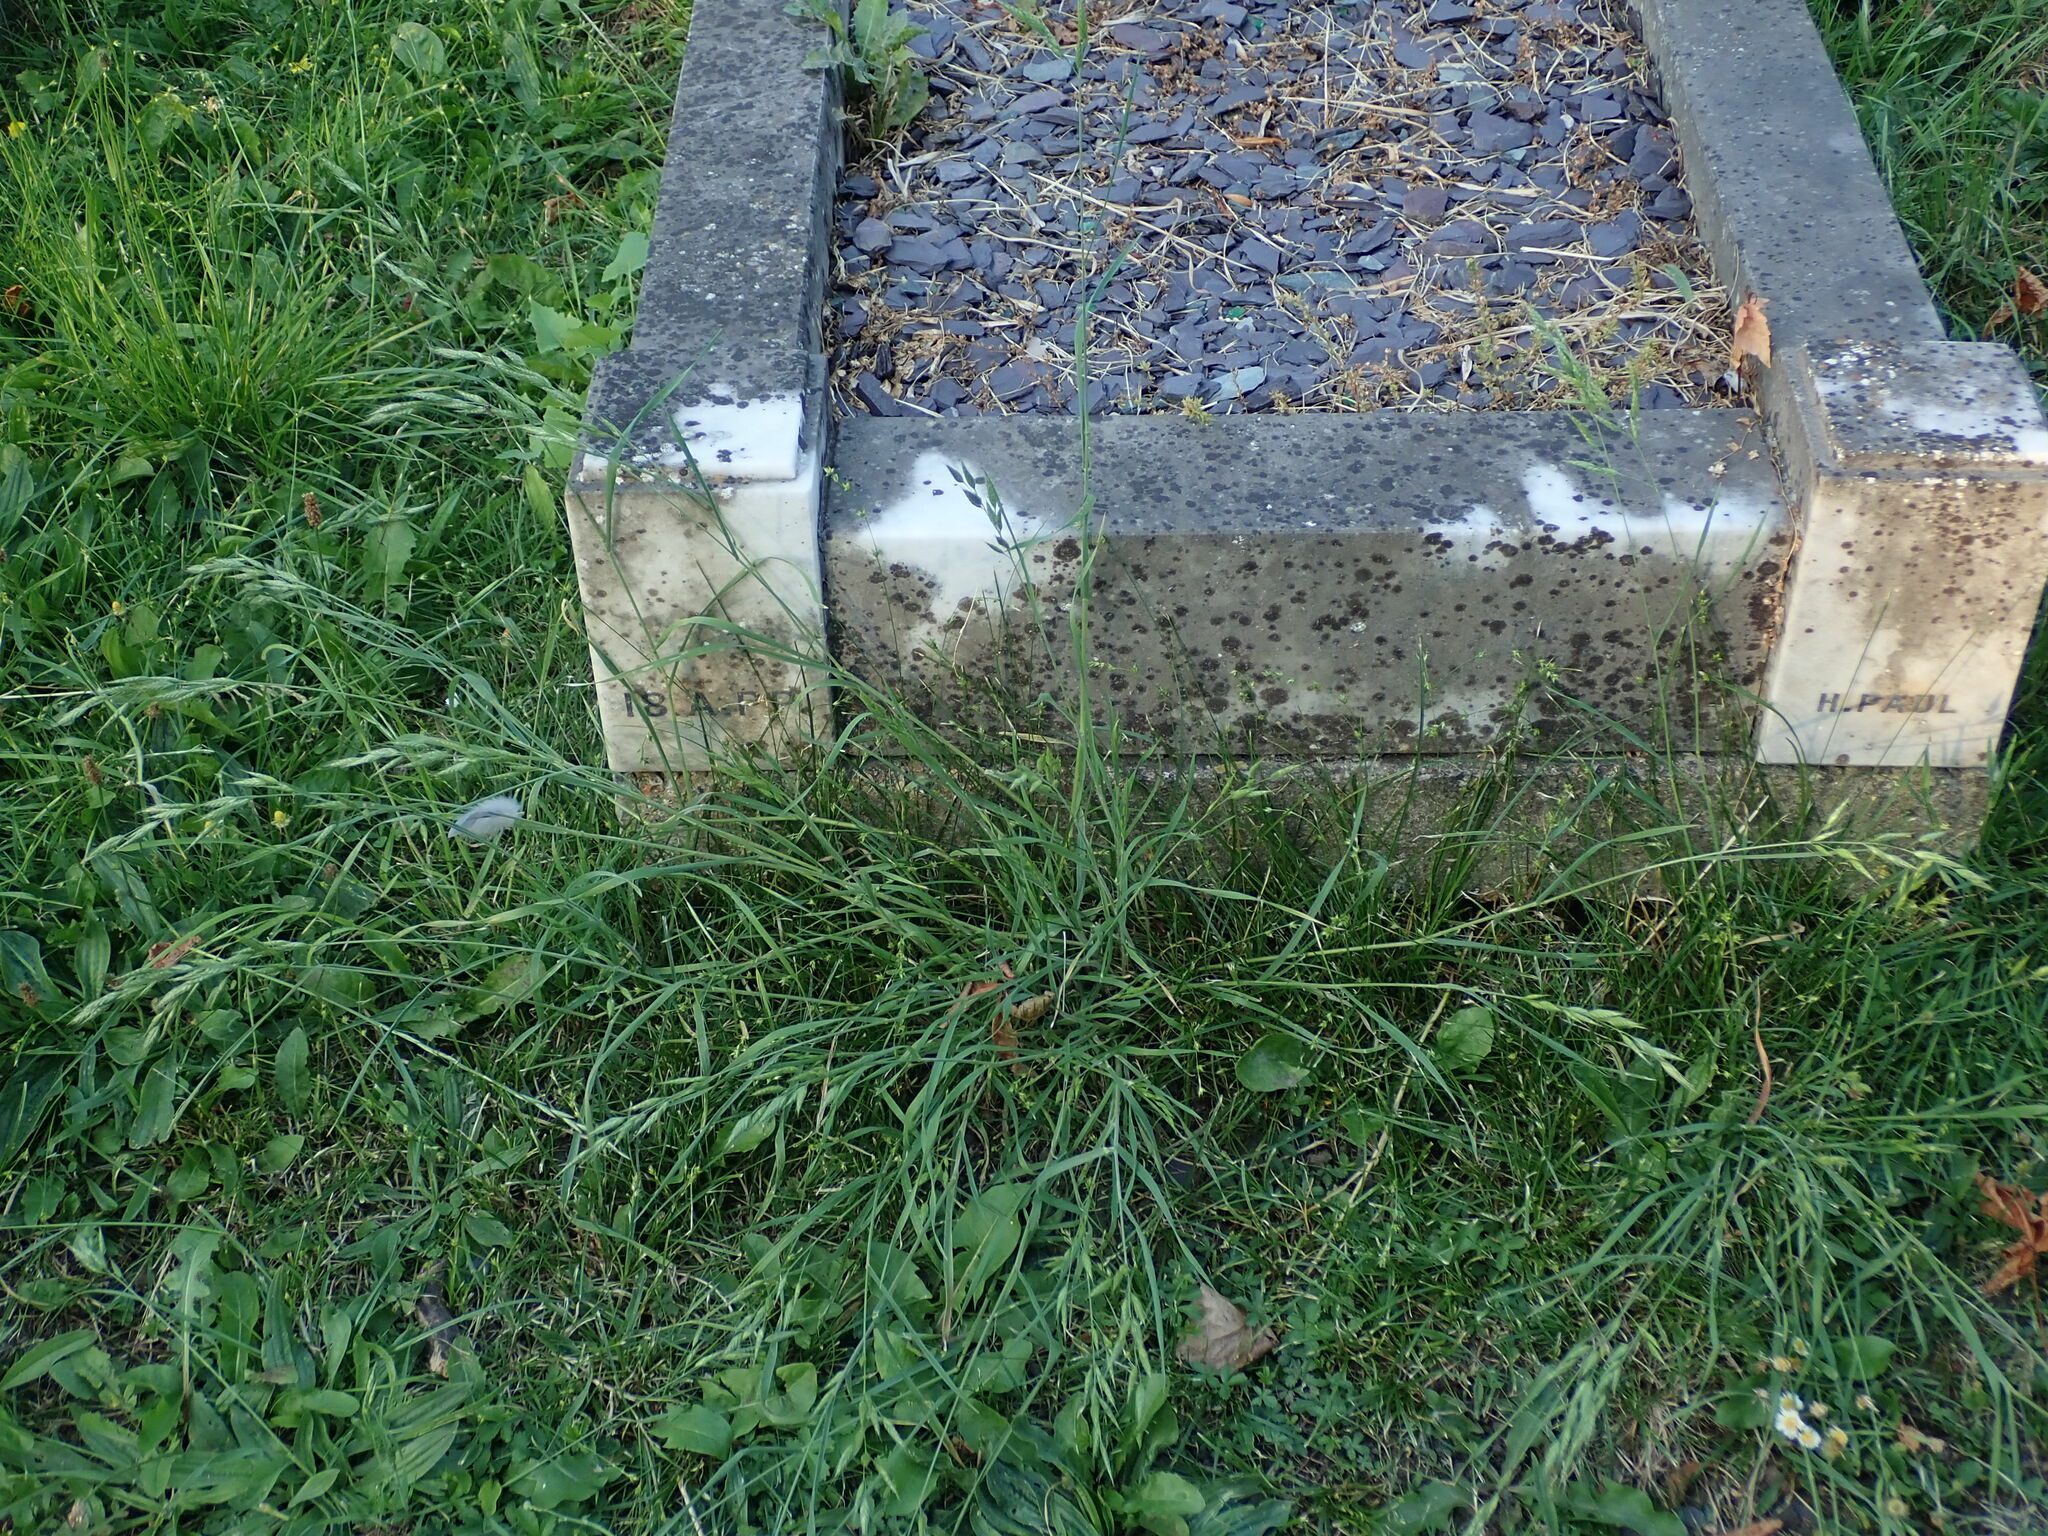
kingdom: Plantae
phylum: Tracheophyta
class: Liliopsida
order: Poales
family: Poaceae
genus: Bromus
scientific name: Bromus hordeaceus
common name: Soft brome
